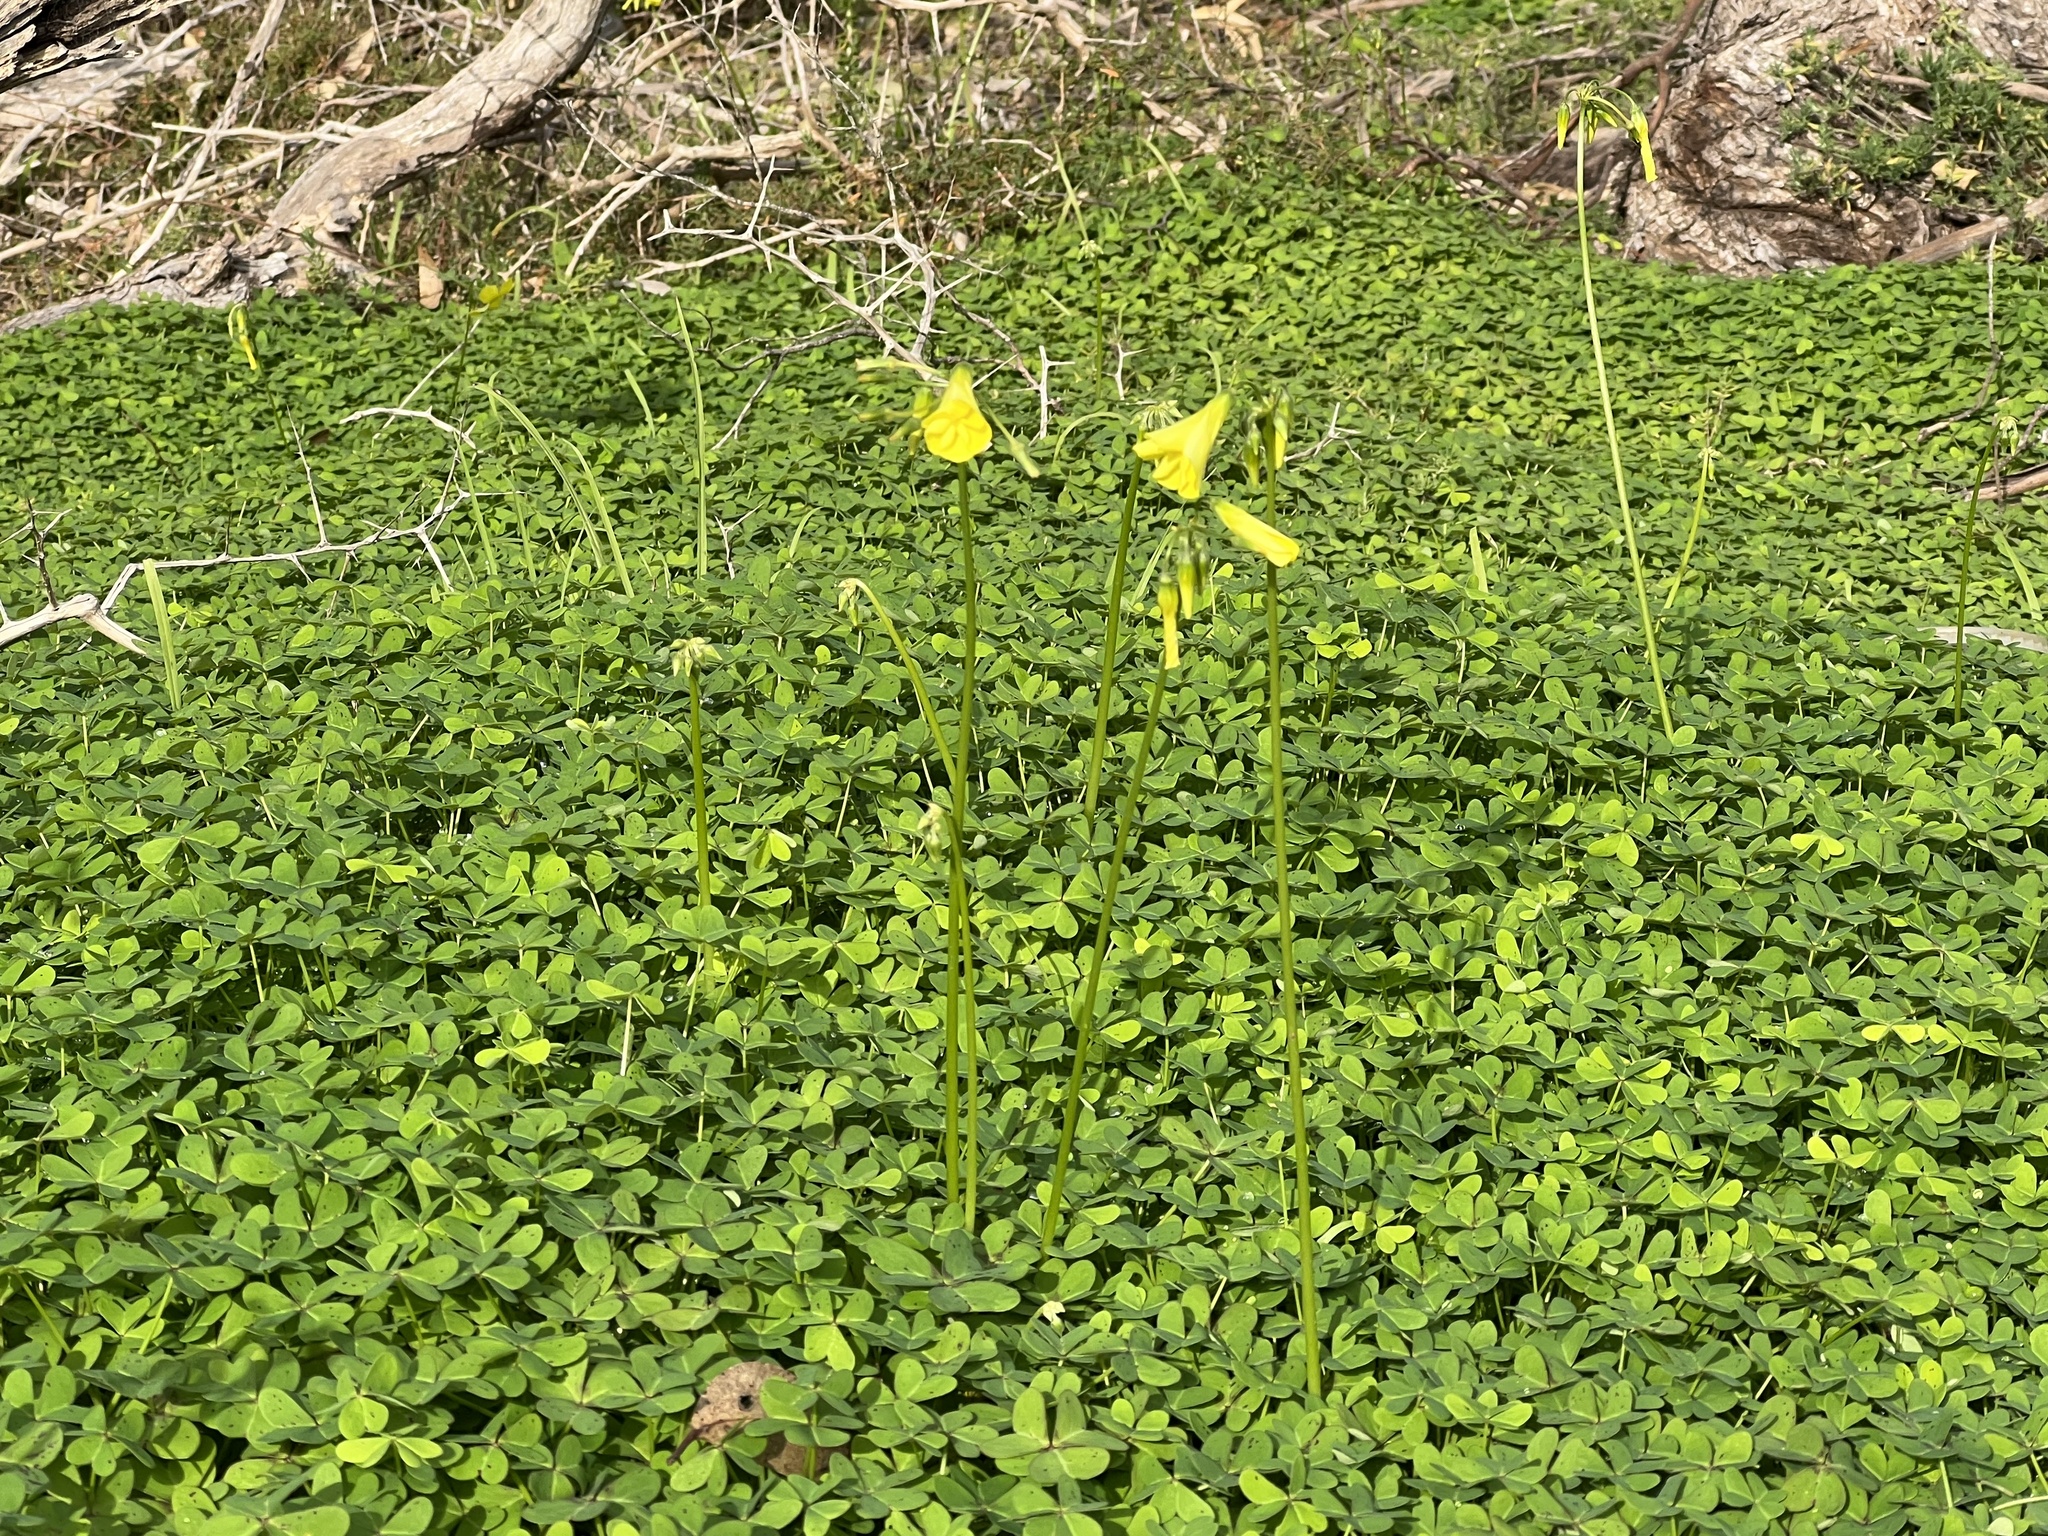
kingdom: Plantae
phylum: Tracheophyta
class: Magnoliopsida
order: Oxalidales
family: Oxalidaceae
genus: Oxalis
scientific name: Oxalis pes-caprae
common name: Bermuda-buttercup
